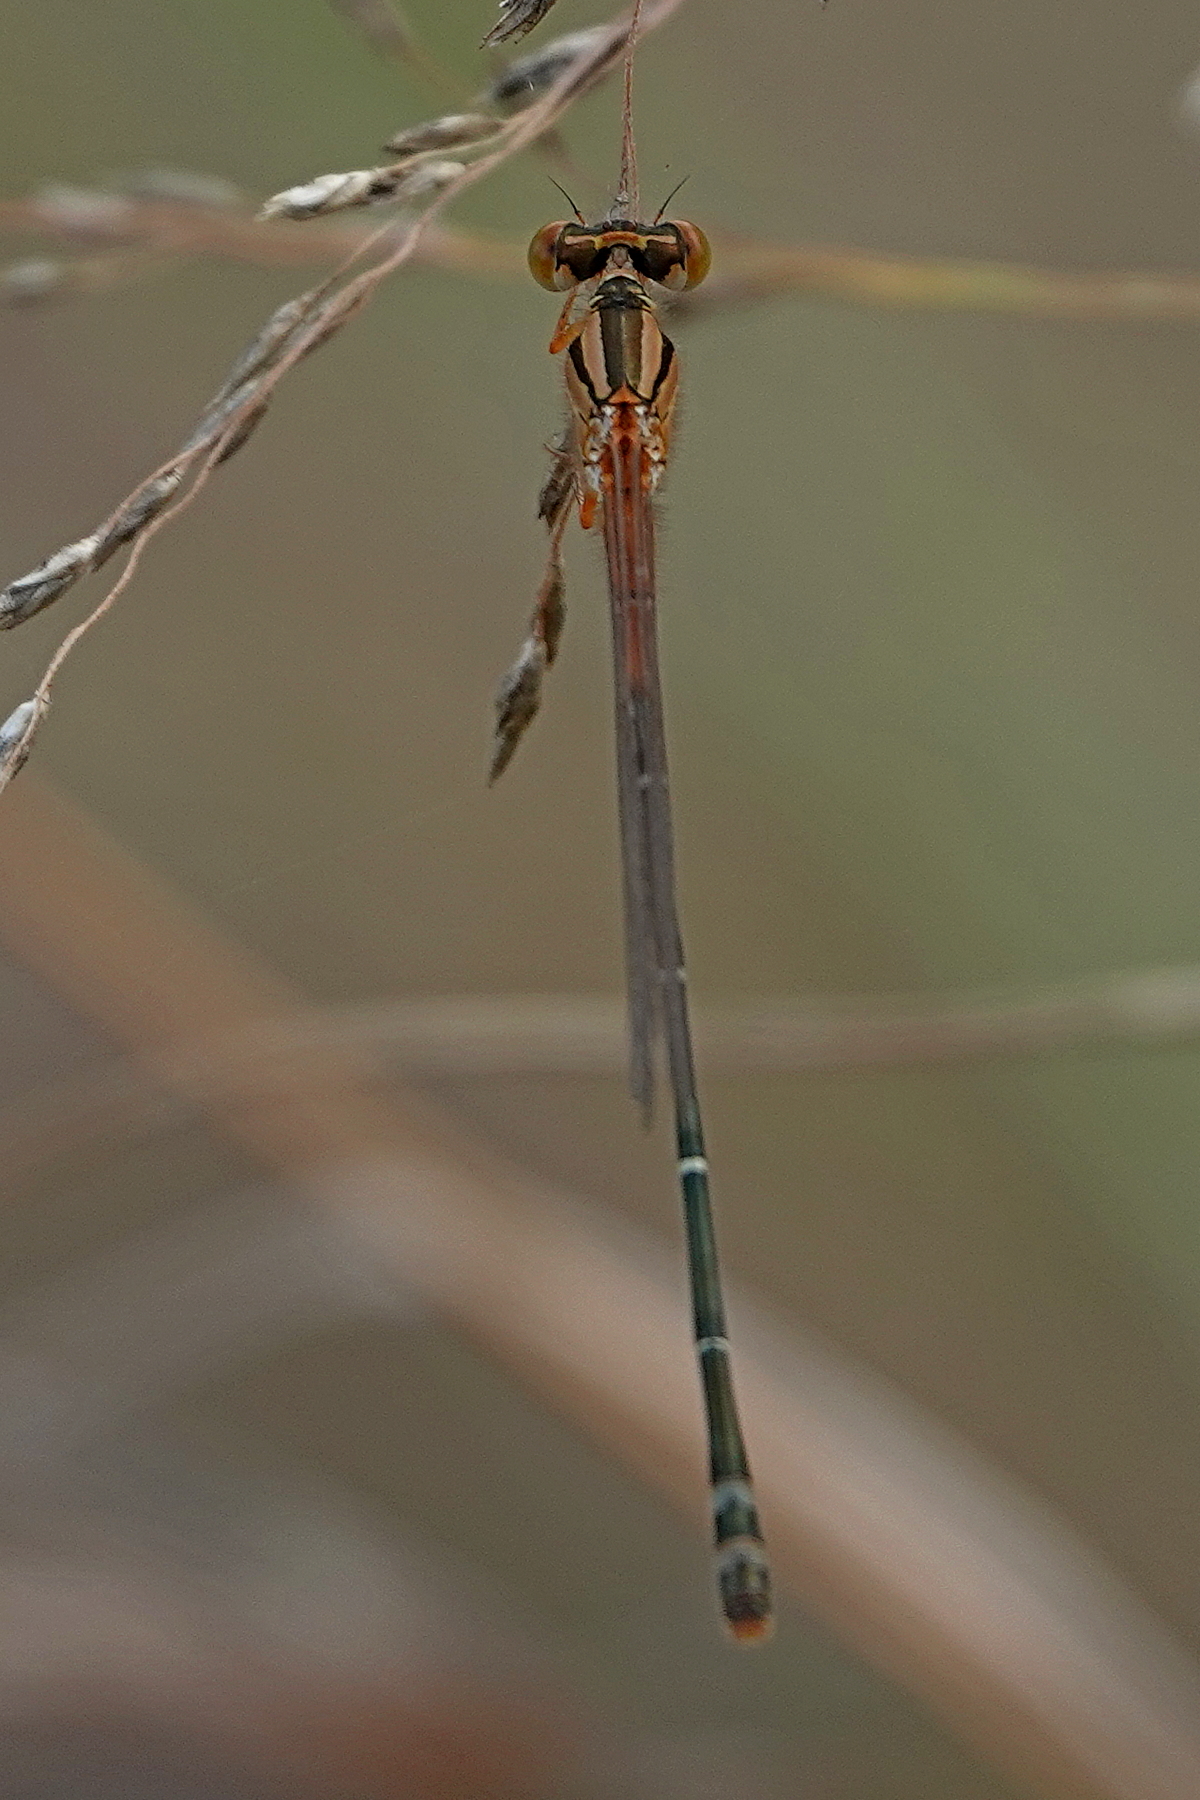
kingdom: Animalia
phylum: Arthropoda
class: Insecta
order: Odonata
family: Coenagrionidae
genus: Xanthagrion
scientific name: Xanthagrion erythroneurum
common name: Red and blue damsel
